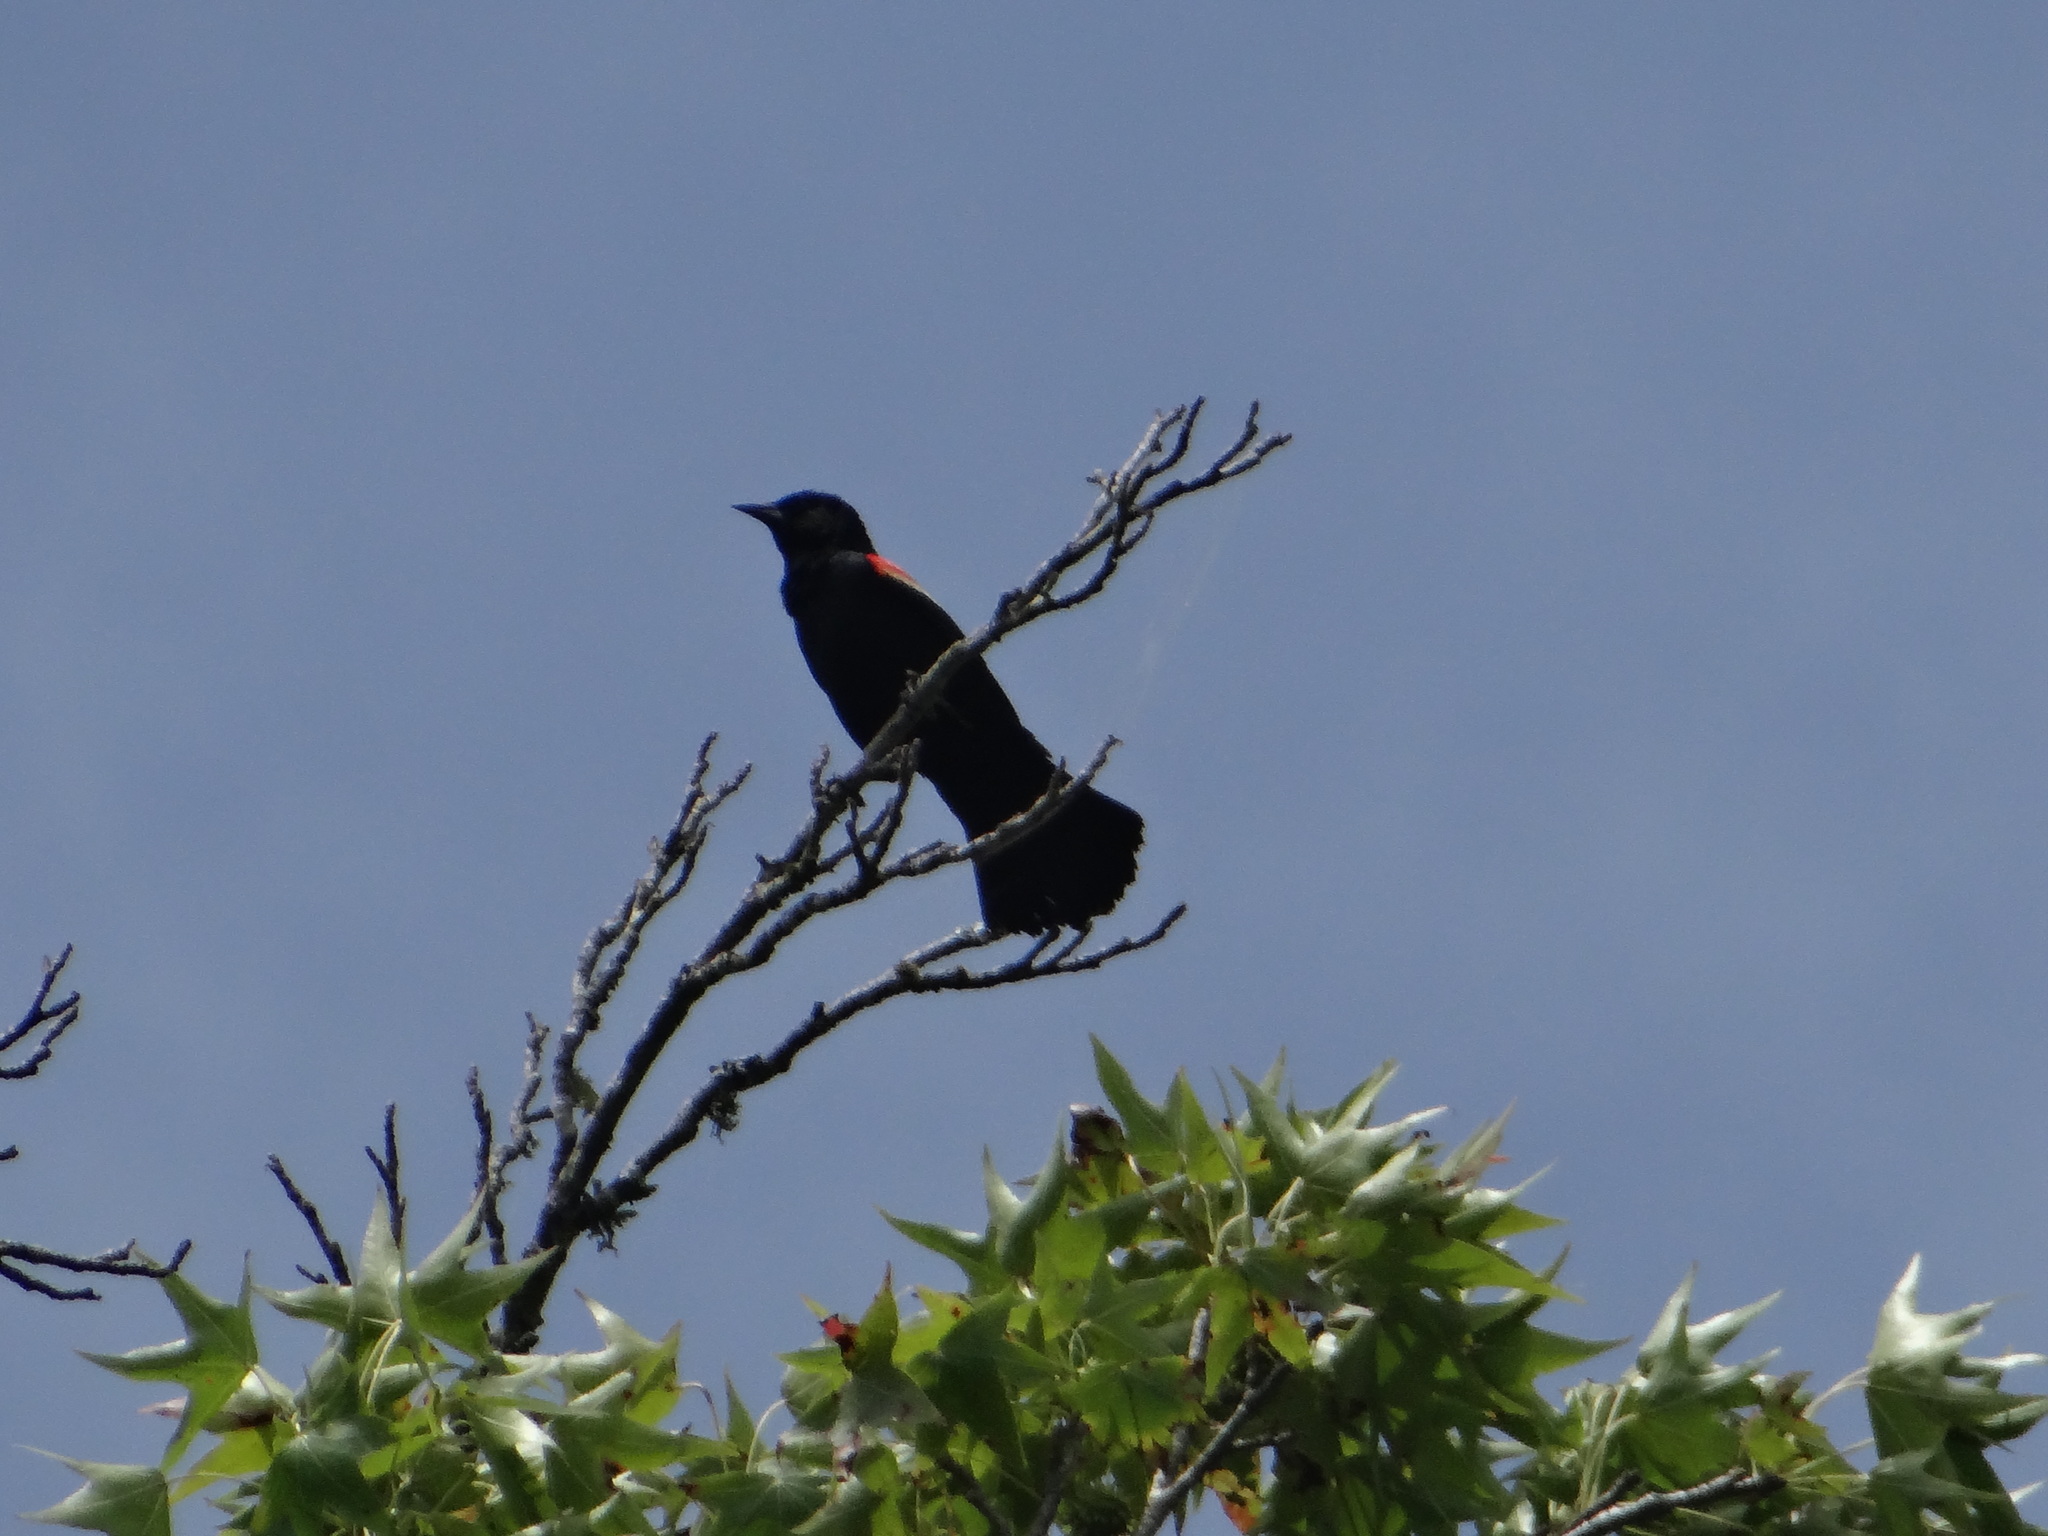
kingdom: Animalia
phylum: Chordata
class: Aves
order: Passeriformes
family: Icteridae
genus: Agelaius
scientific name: Agelaius phoeniceus
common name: Red-winged blackbird
